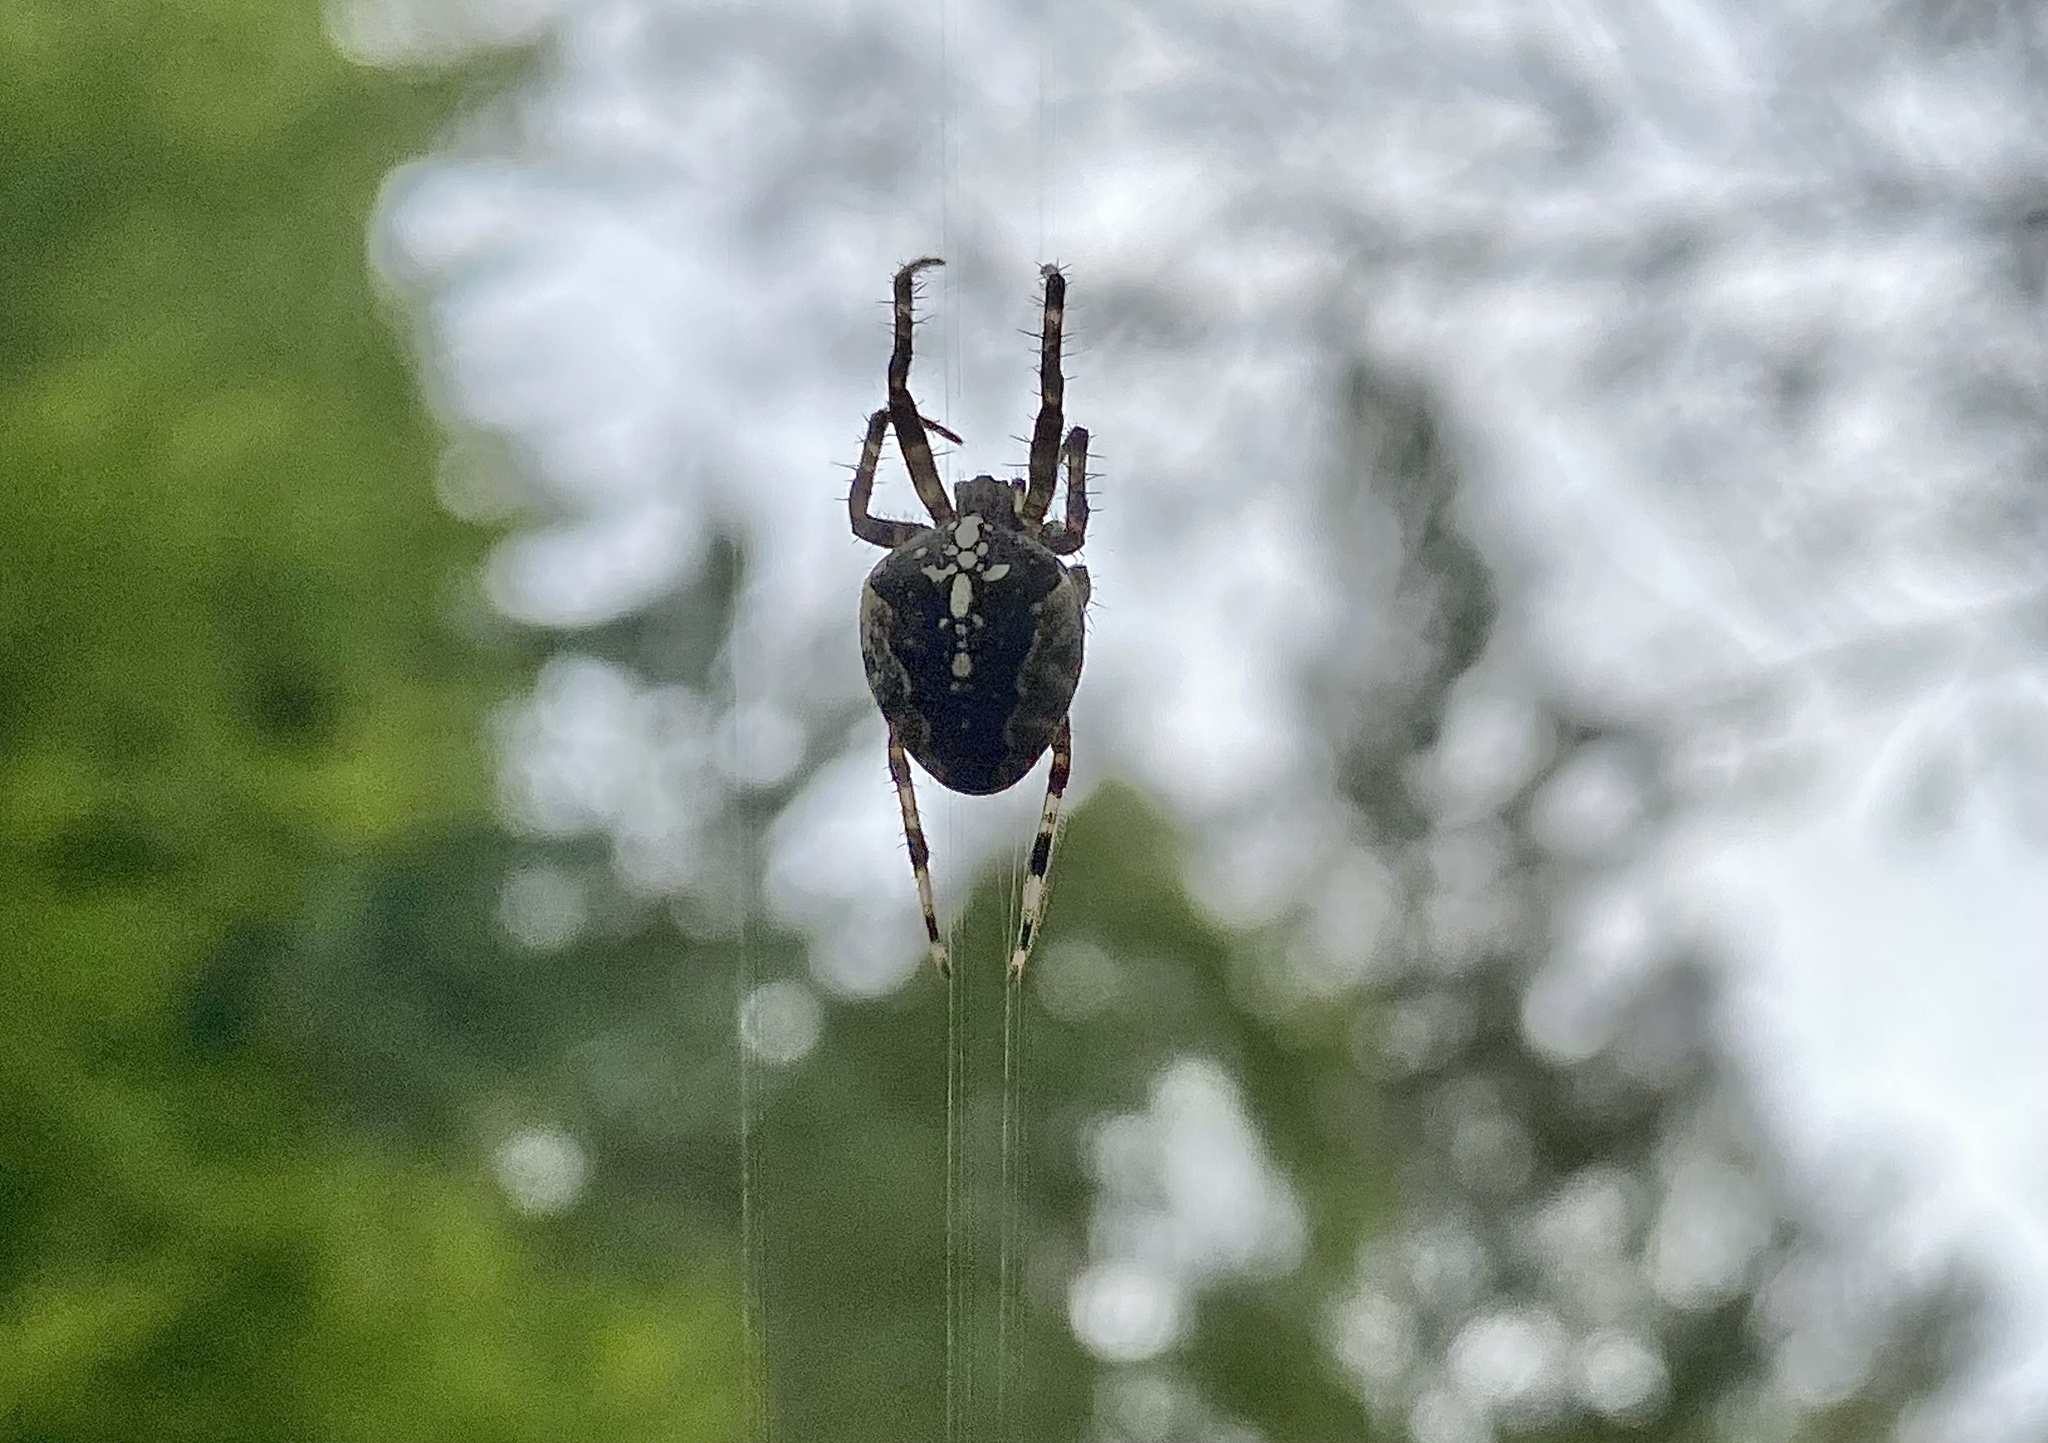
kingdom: Animalia
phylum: Arthropoda
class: Arachnida
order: Araneae
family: Araneidae
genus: Araneus
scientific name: Araneus diadematus
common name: Cross orbweaver
